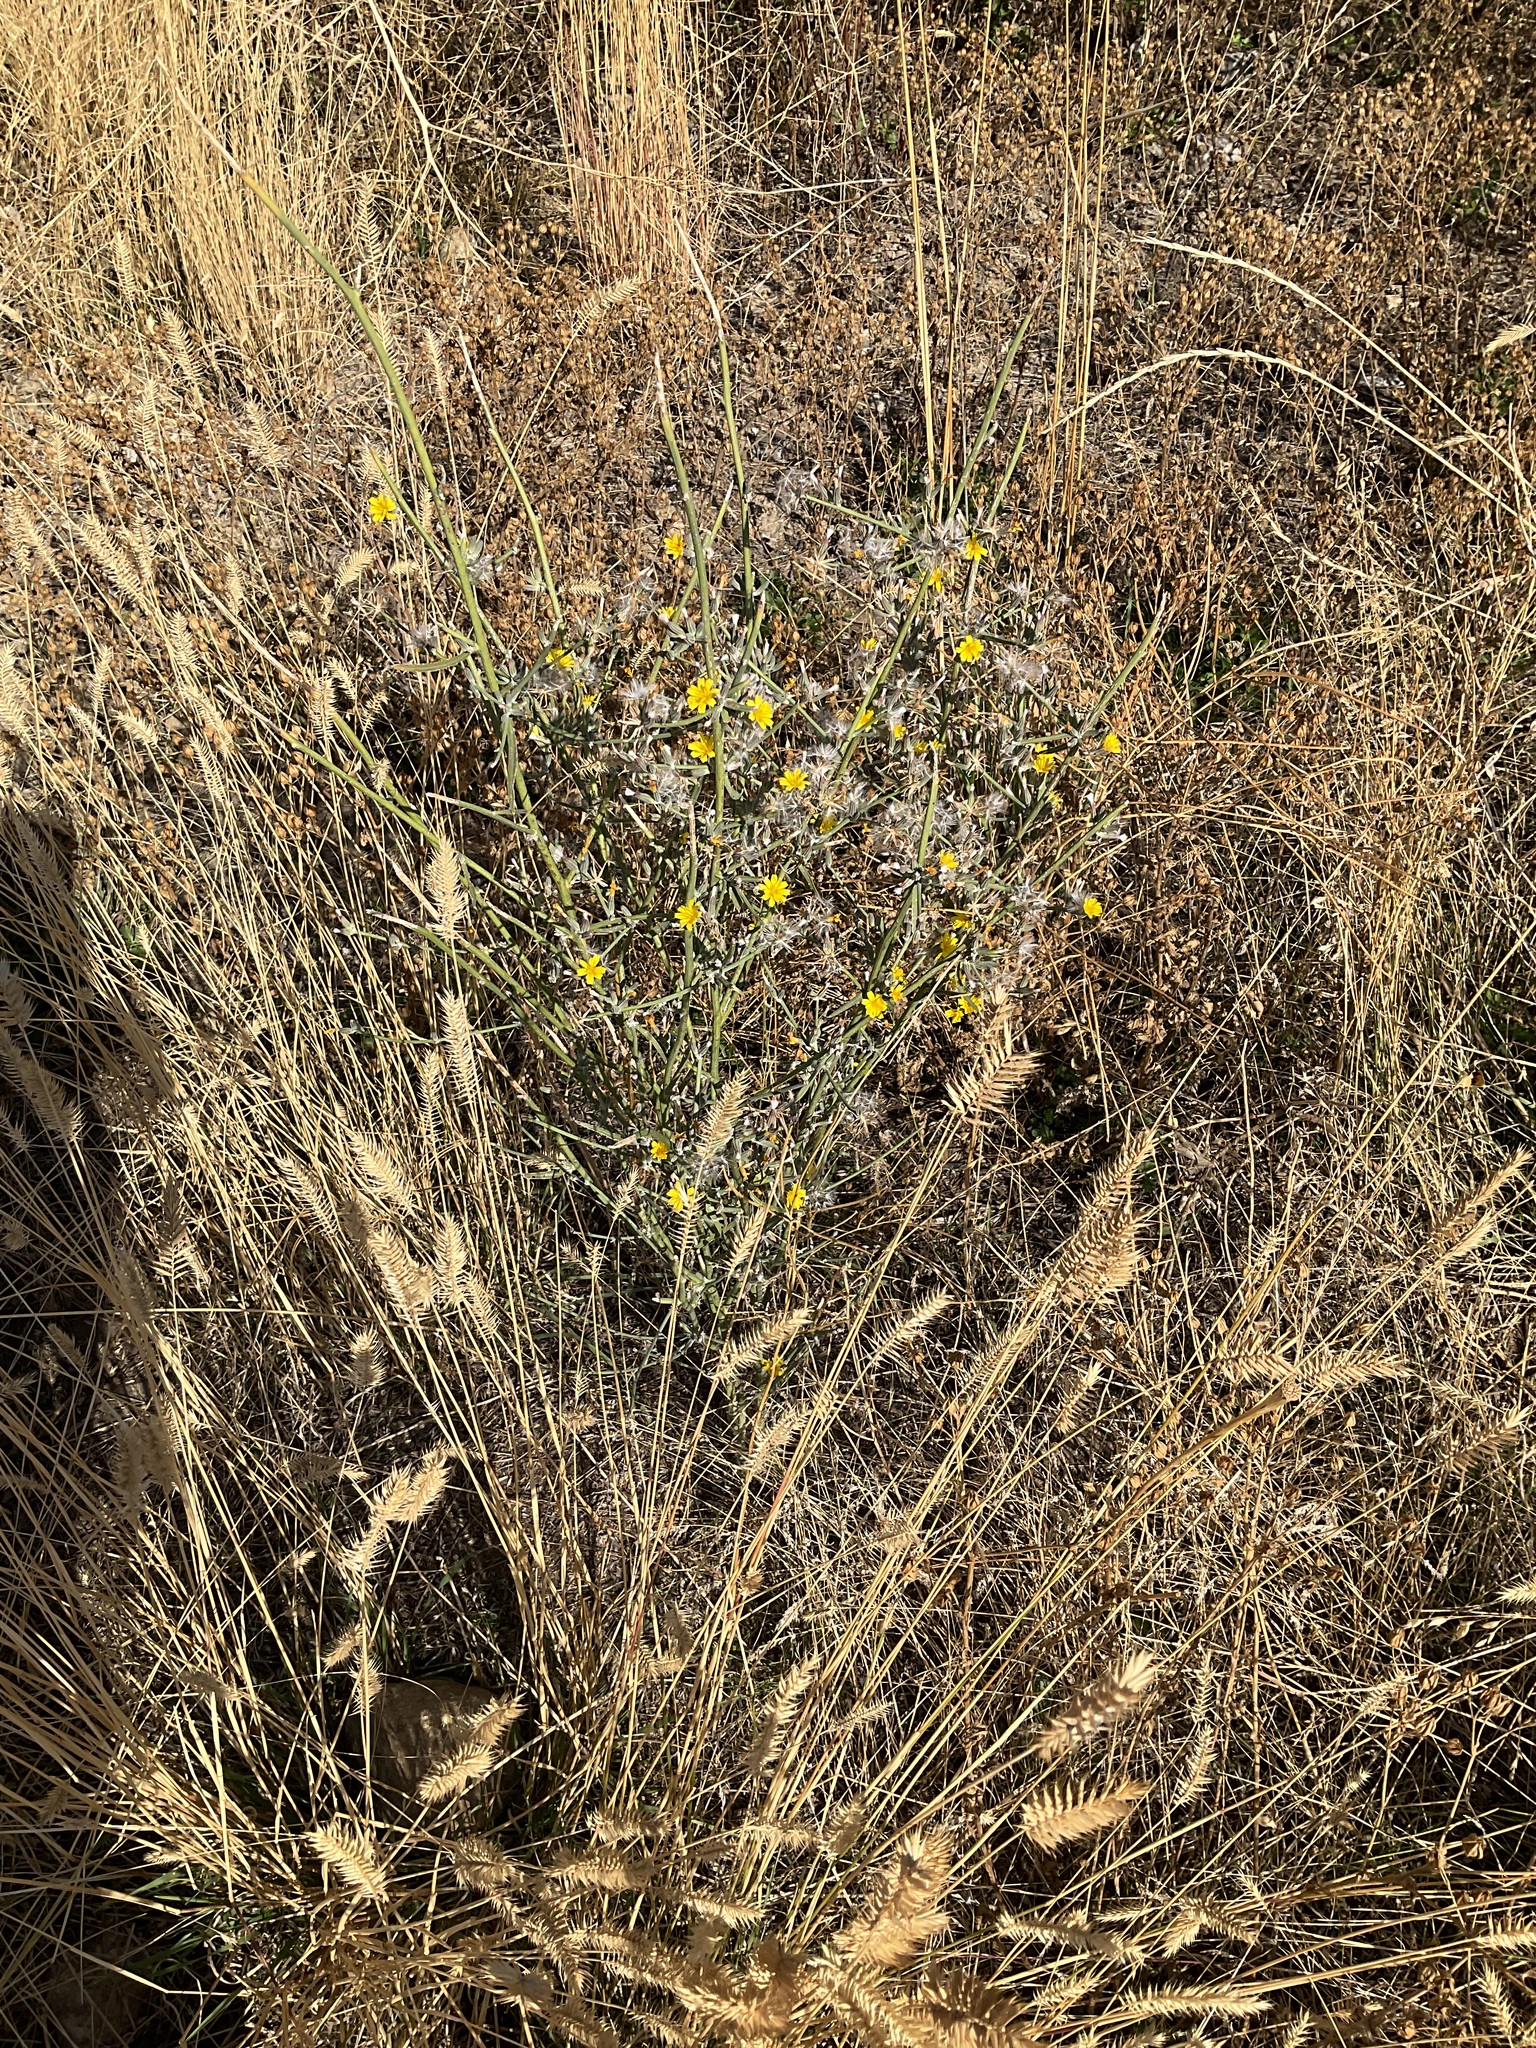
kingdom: Plantae
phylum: Tracheophyta
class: Magnoliopsida
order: Asterales
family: Asteraceae
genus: Chondrilla
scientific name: Chondrilla juncea
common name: Skeleton weed
